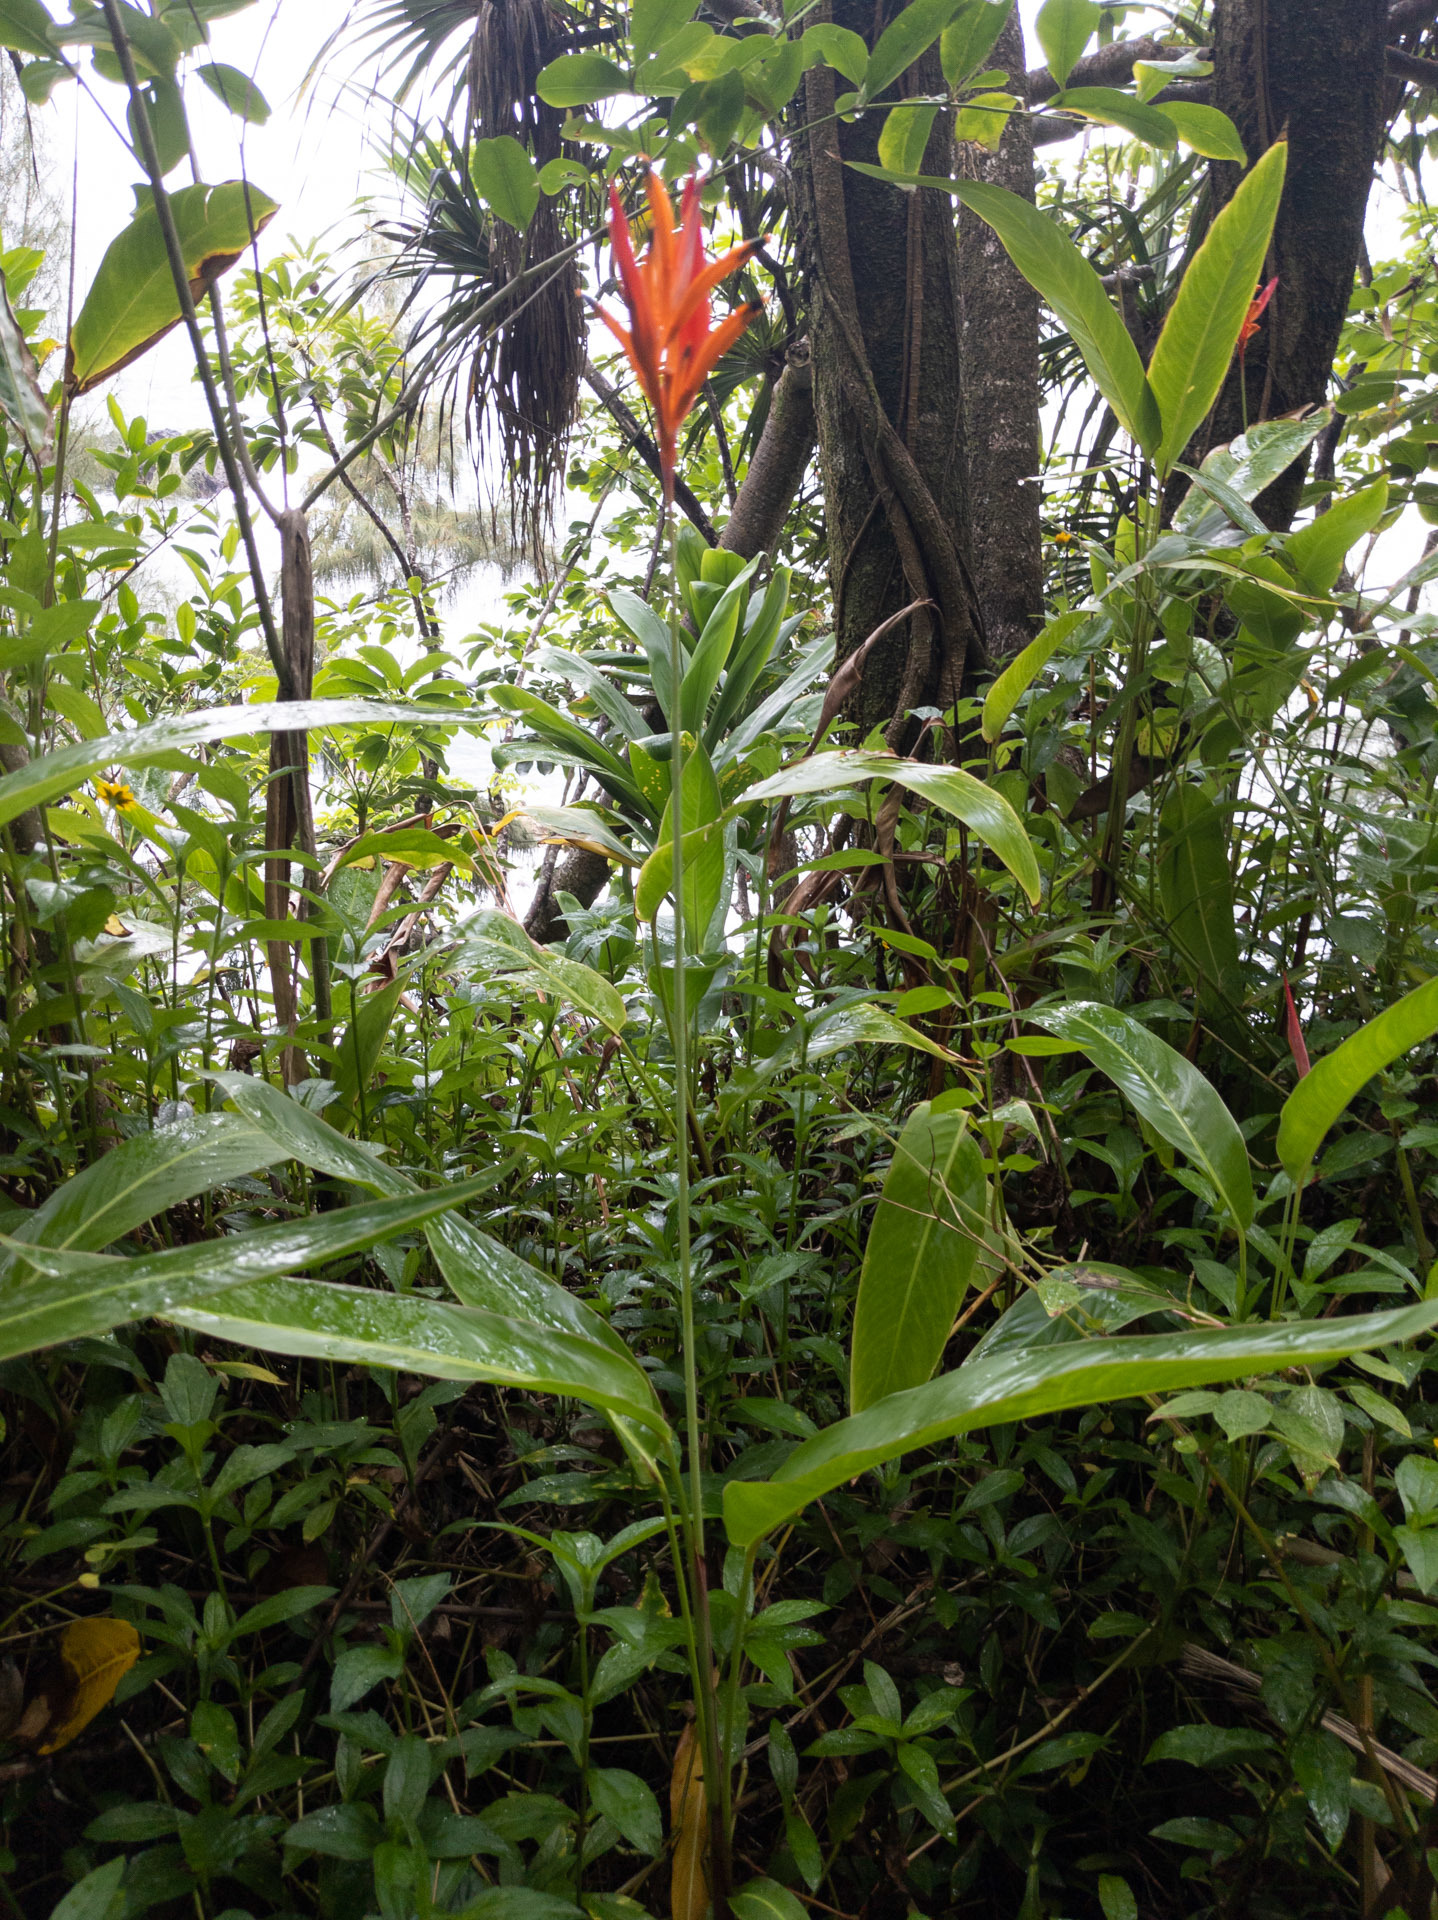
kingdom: Plantae
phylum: Tracheophyta
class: Liliopsida
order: Zingiberales
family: Heliconiaceae
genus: Heliconia
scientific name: Heliconia psittacorum
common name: Parrot's-flower
